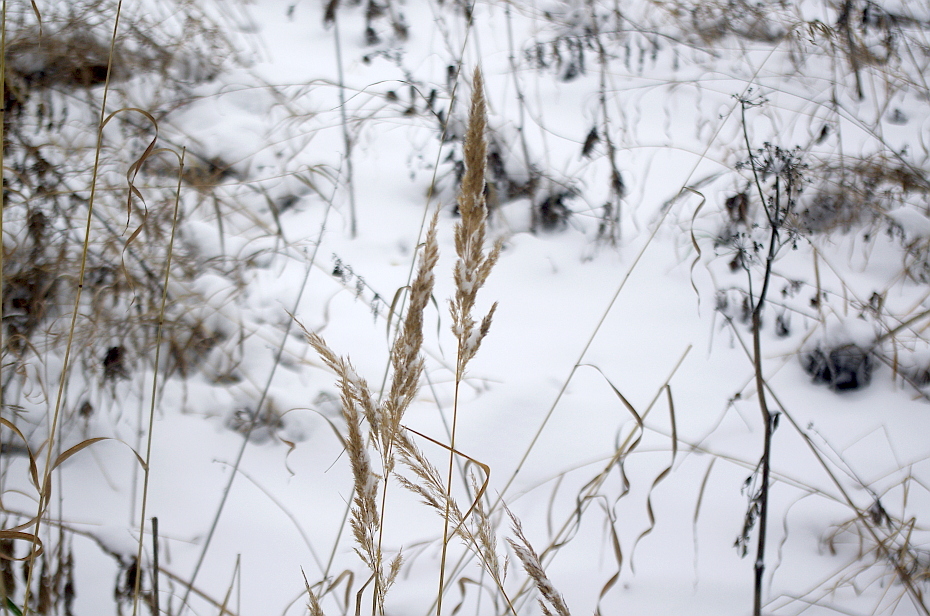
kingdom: Plantae
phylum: Tracheophyta
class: Liliopsida
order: Poales
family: Poaceae
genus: Calamagrostis
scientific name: Calamagrostis epigejos
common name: Wood small-reed
